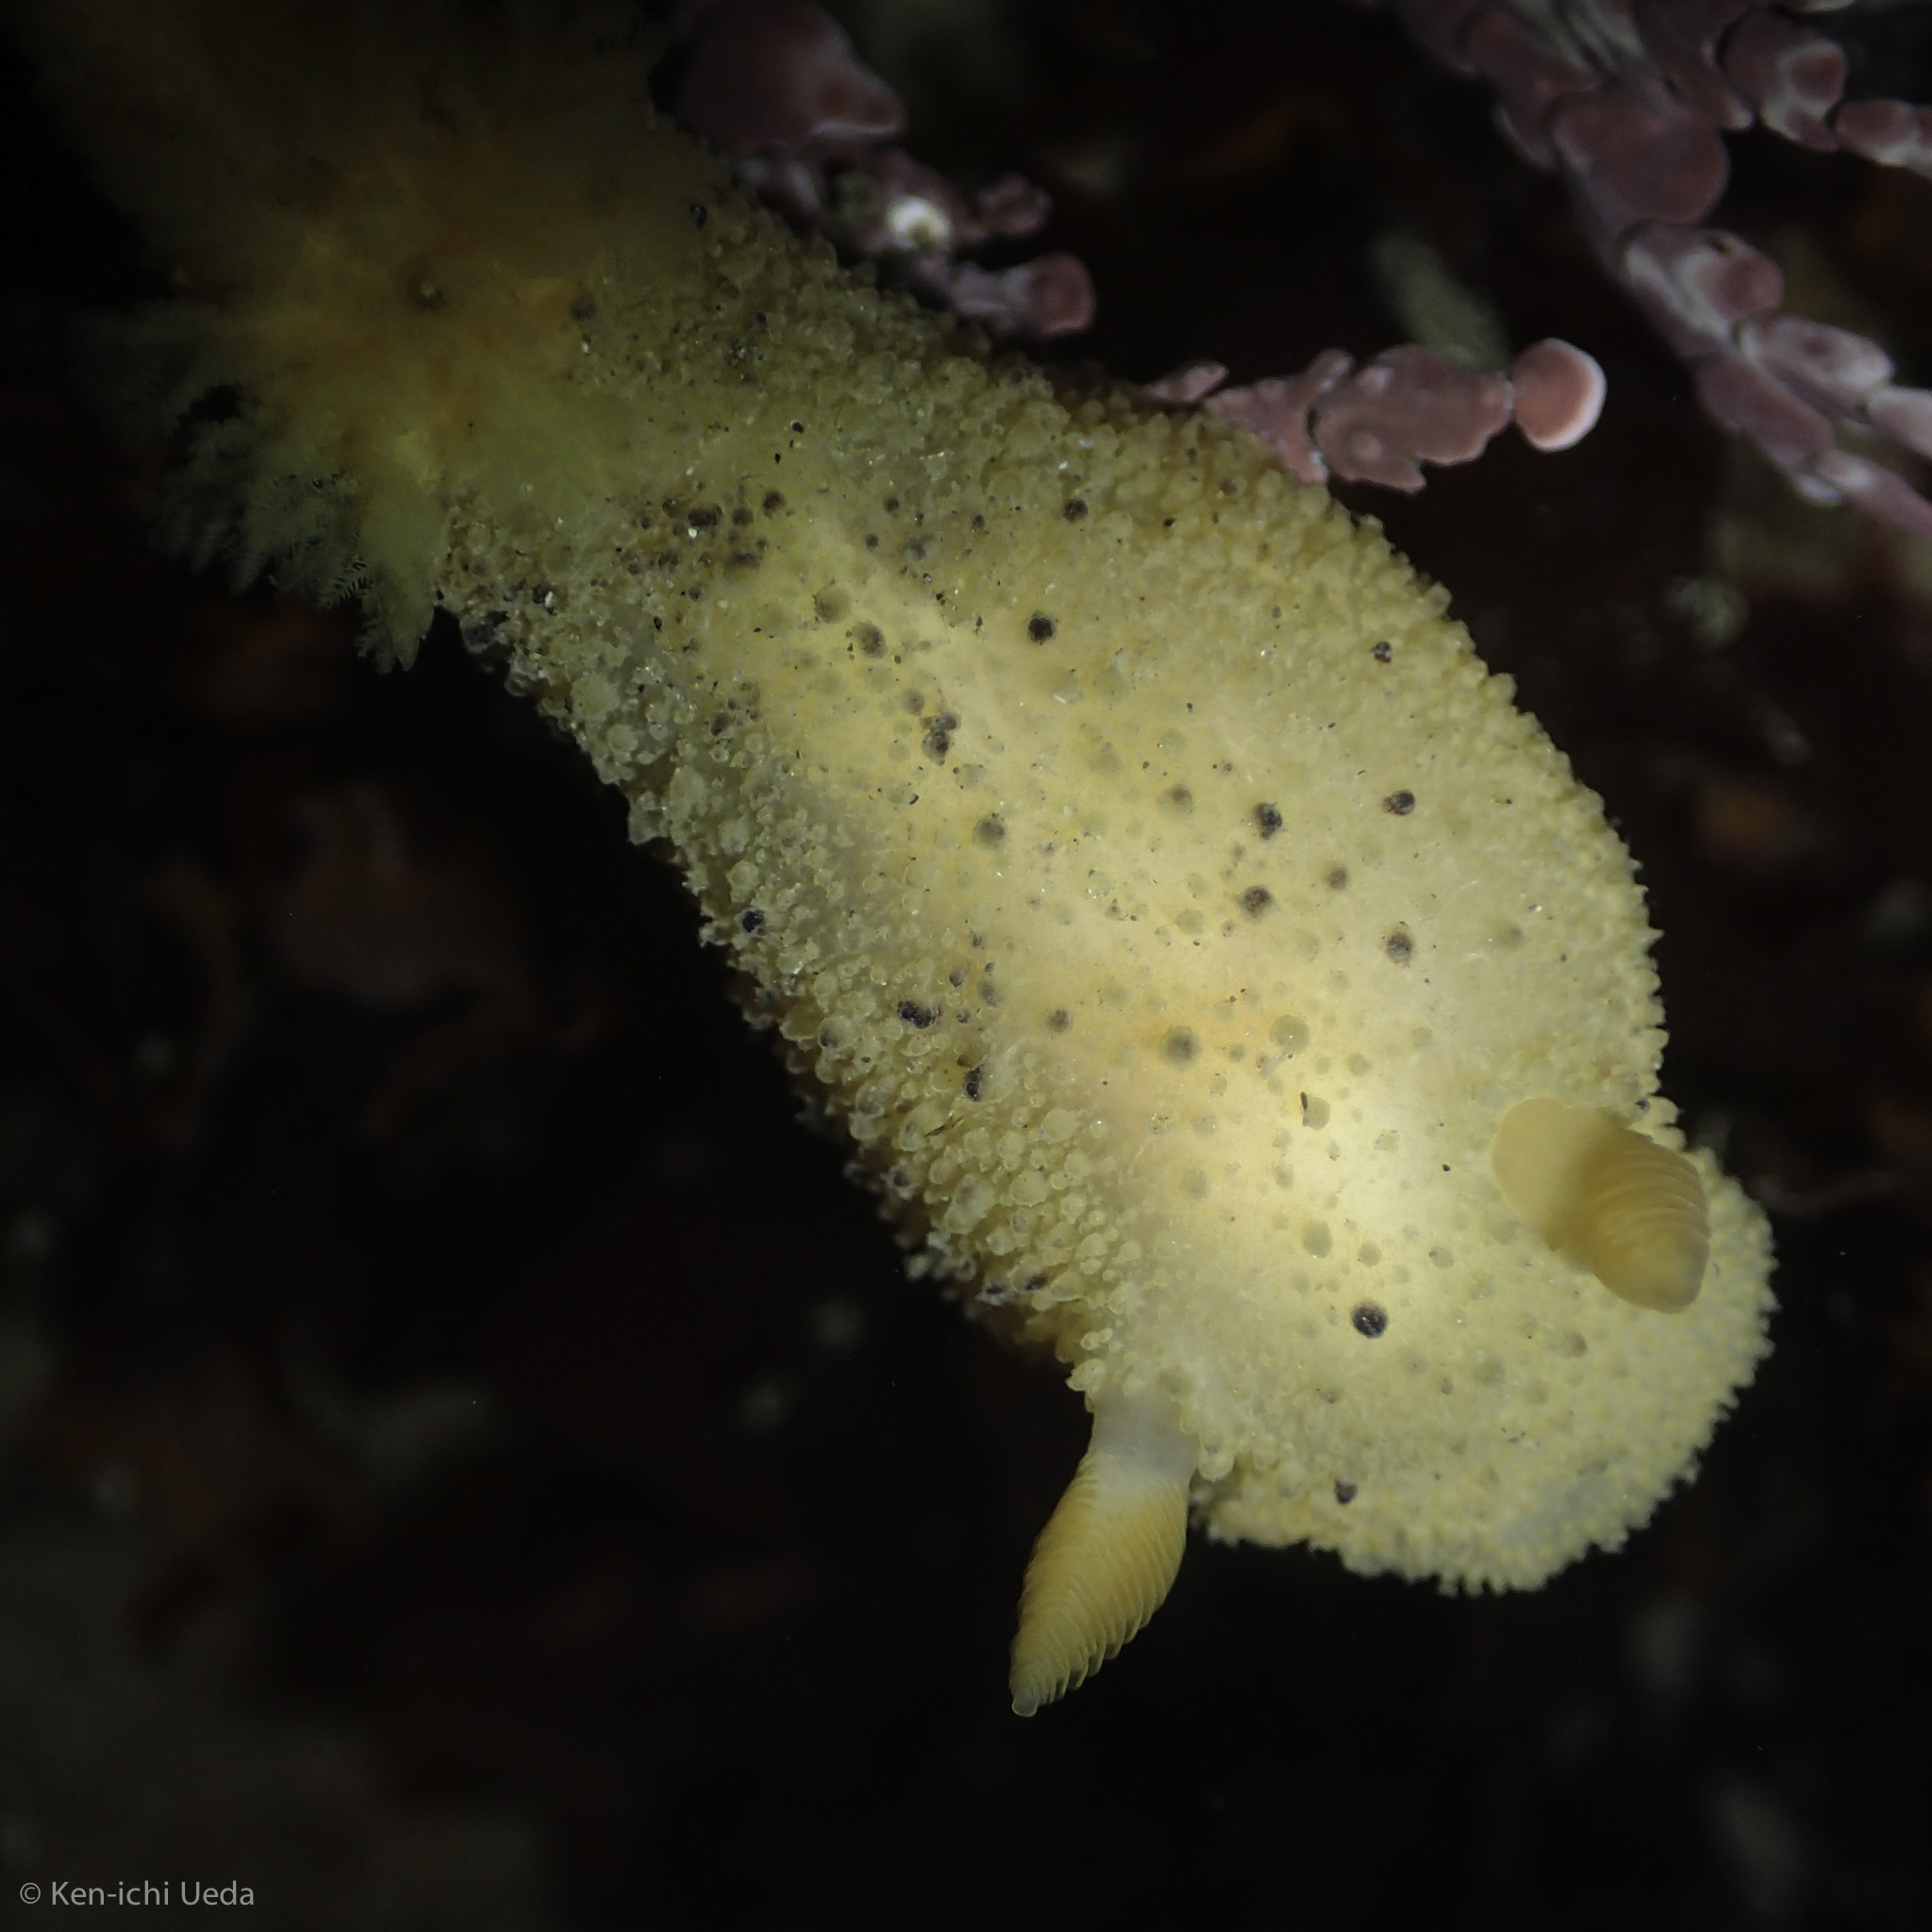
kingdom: Animalia
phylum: Mollusca
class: Gastropoda
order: Nudibranchia
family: Dorididae
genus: Doris
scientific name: Doris montereyensis
